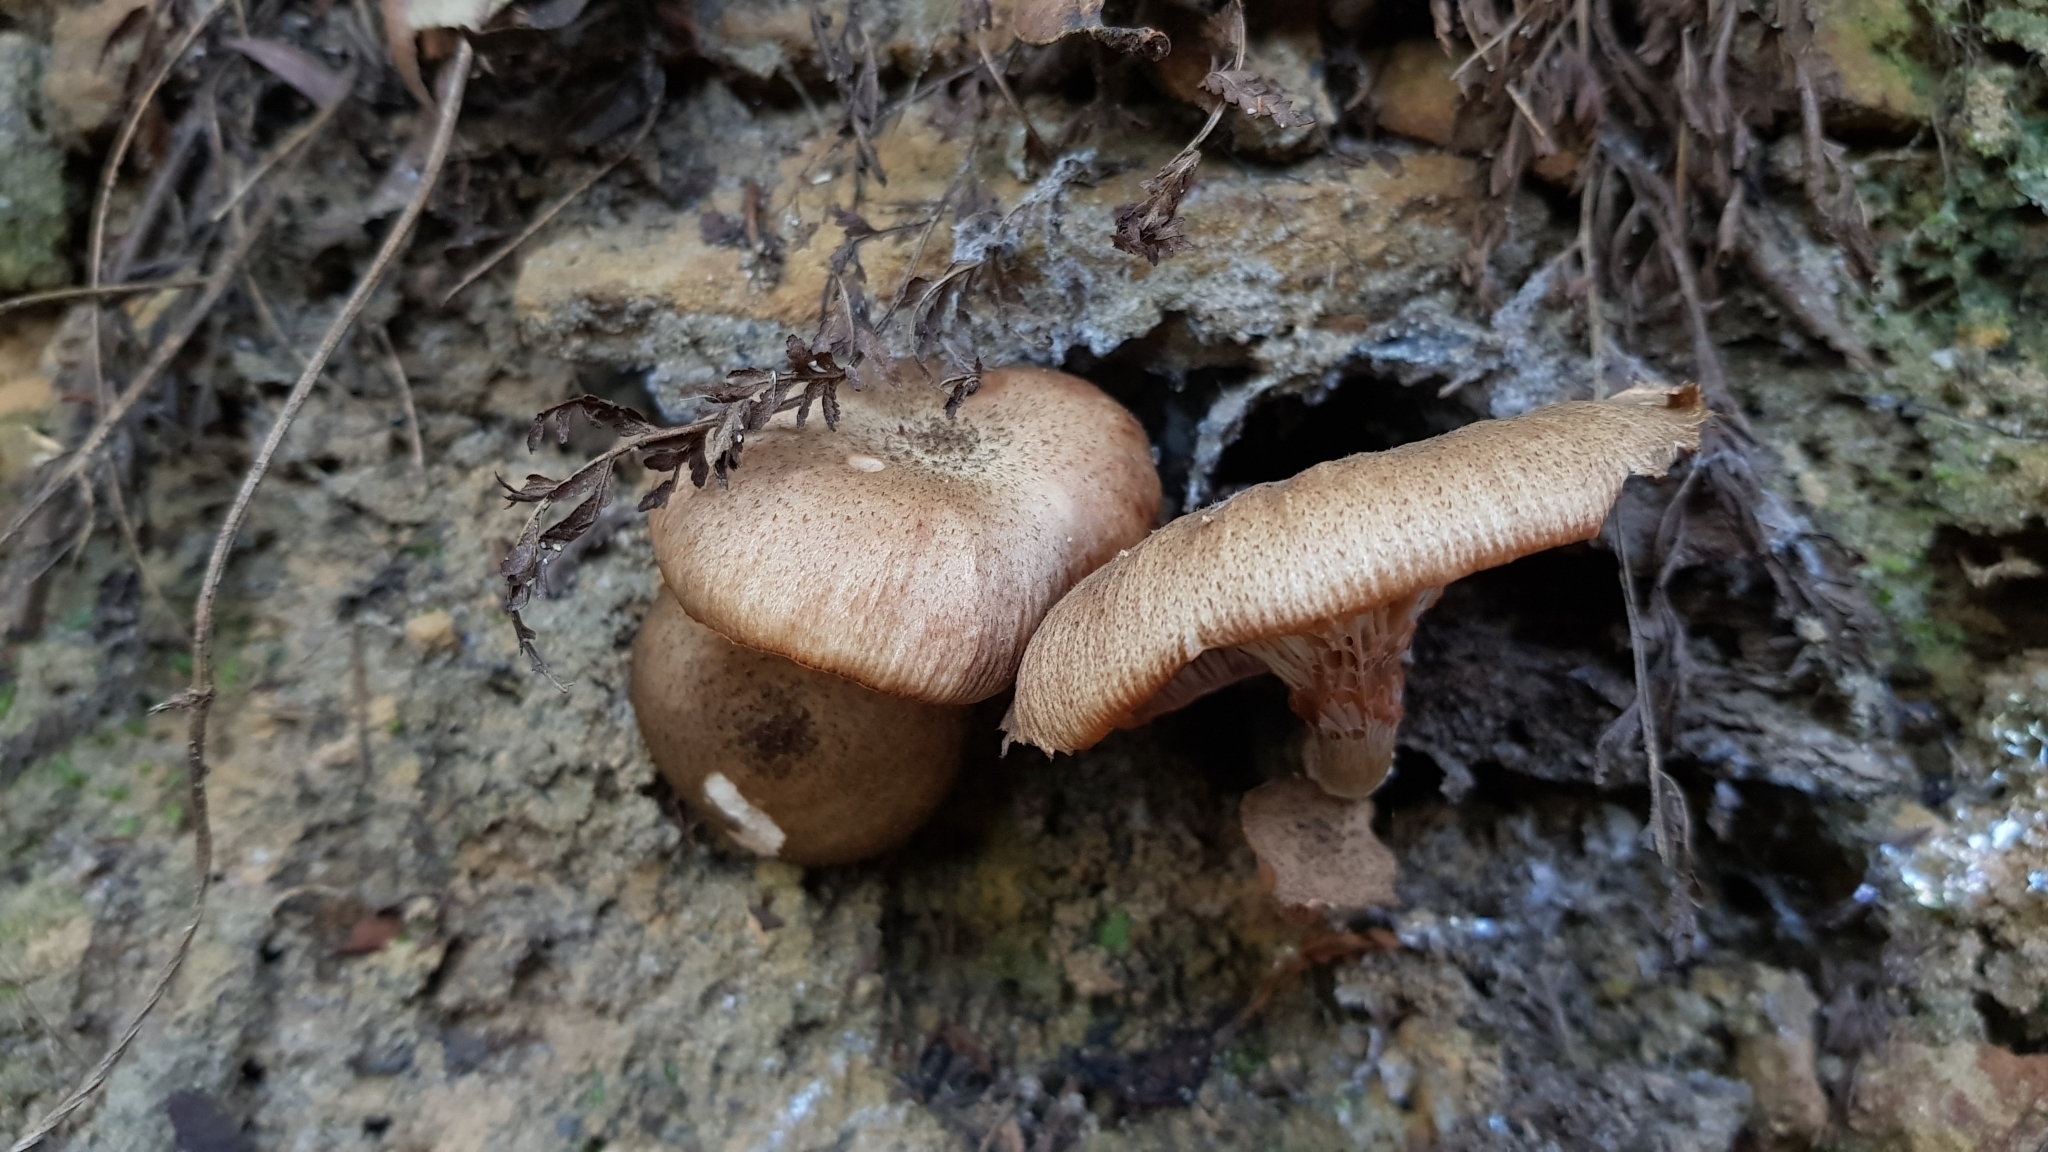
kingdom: Fungi
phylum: Basidiomycota
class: Agaricomycetes
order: Agaricales
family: Physalacriaceae
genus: Armillaria
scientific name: Armillaria novae-zelandiae
